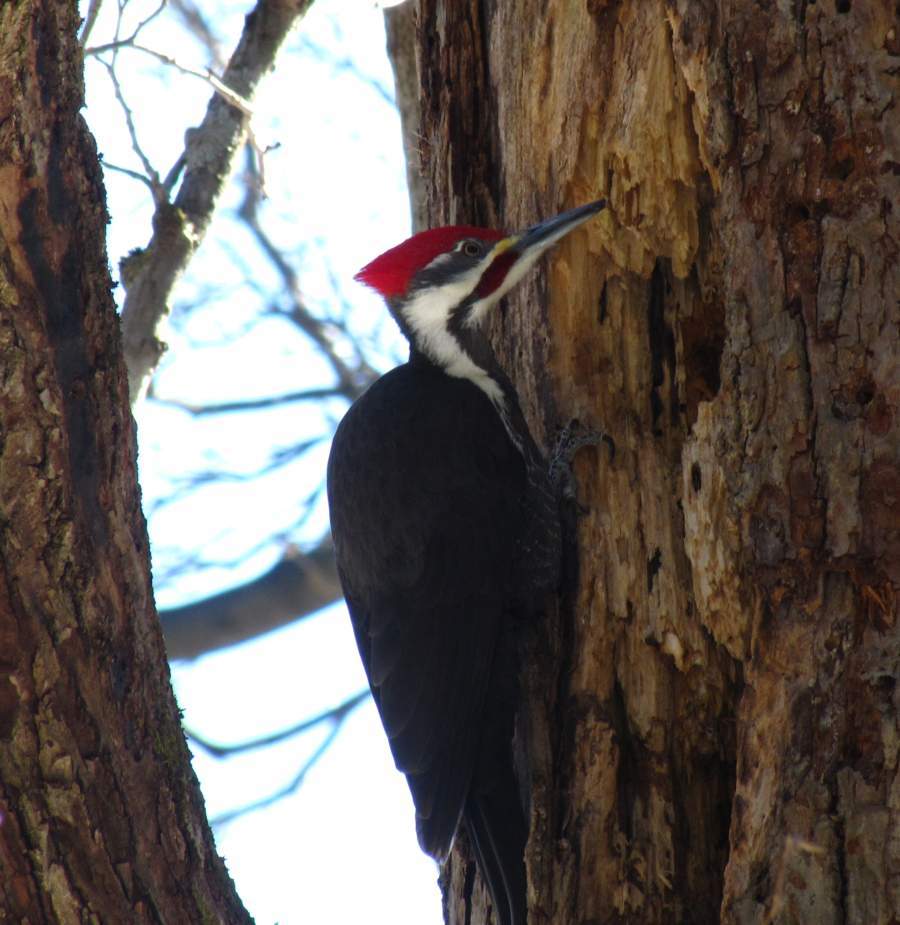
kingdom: Animalia
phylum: Chordata
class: Aves
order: Piciformes
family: Picidae
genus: Dryocopus
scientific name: Dryocopus pileatus
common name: Pileated woodpecker
